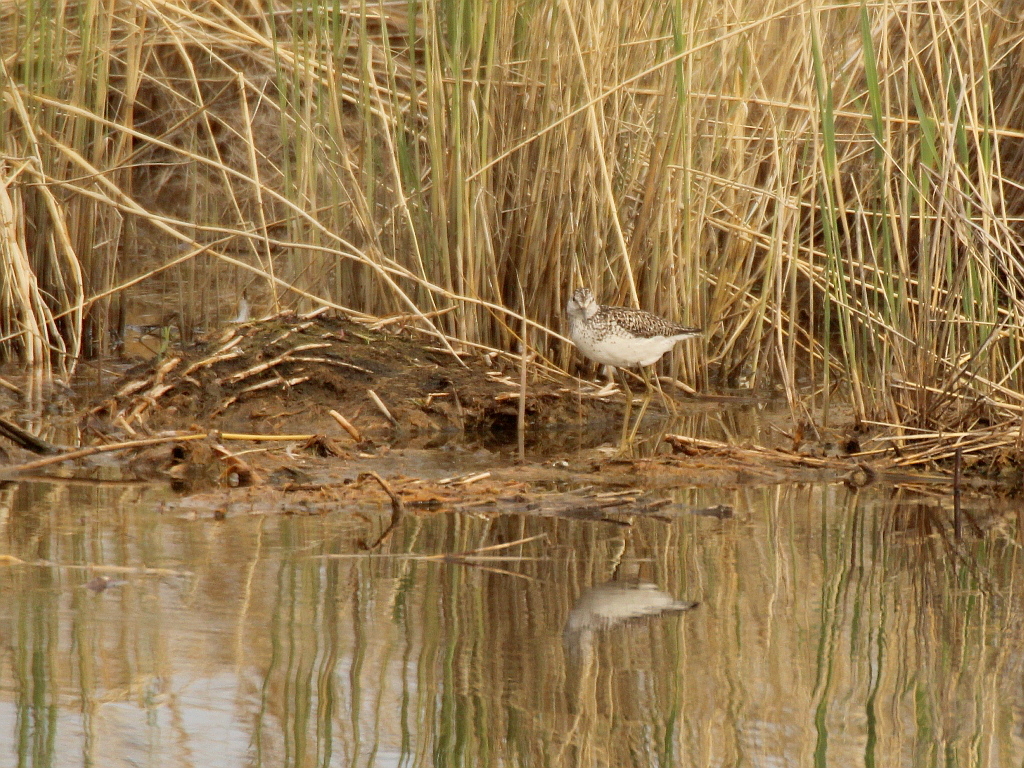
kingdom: Animalia
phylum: Chordata
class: Aves
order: Charadriiformes
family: Scolopacidae
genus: Tringa
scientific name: Tringa stagnatilis
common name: Marsh sandpiper
